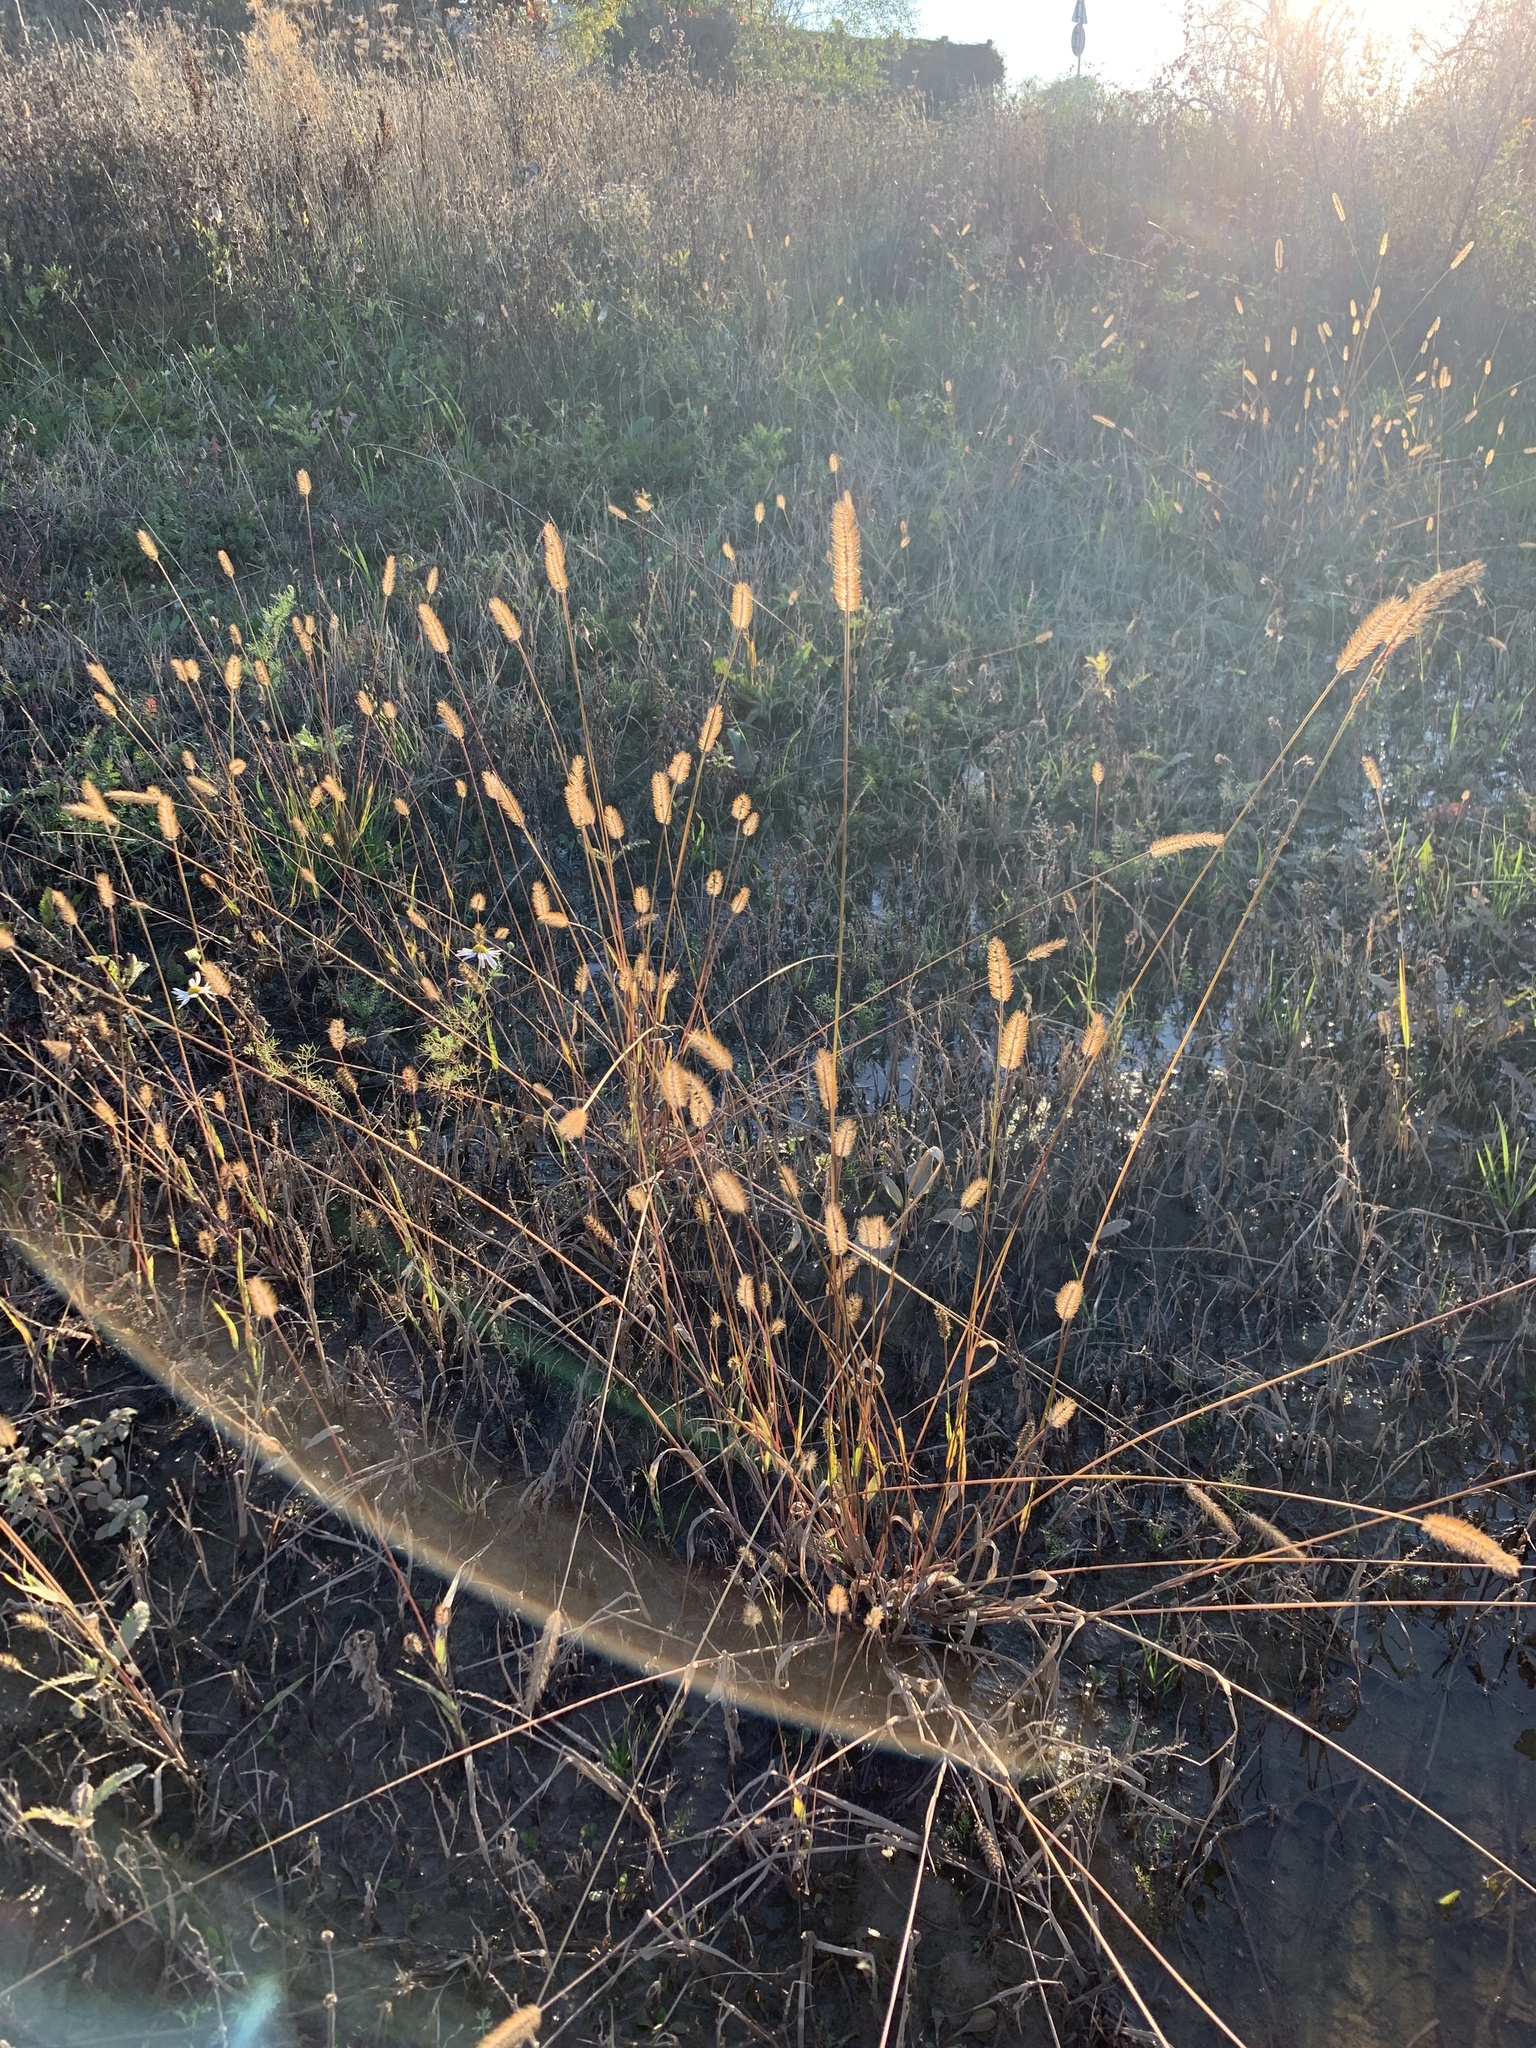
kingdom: Plantae
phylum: Tracheophyta
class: Liliopsida
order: Poales
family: Poaceae
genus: Setaria
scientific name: Setaria pumila
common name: Yellow bristle-grass
